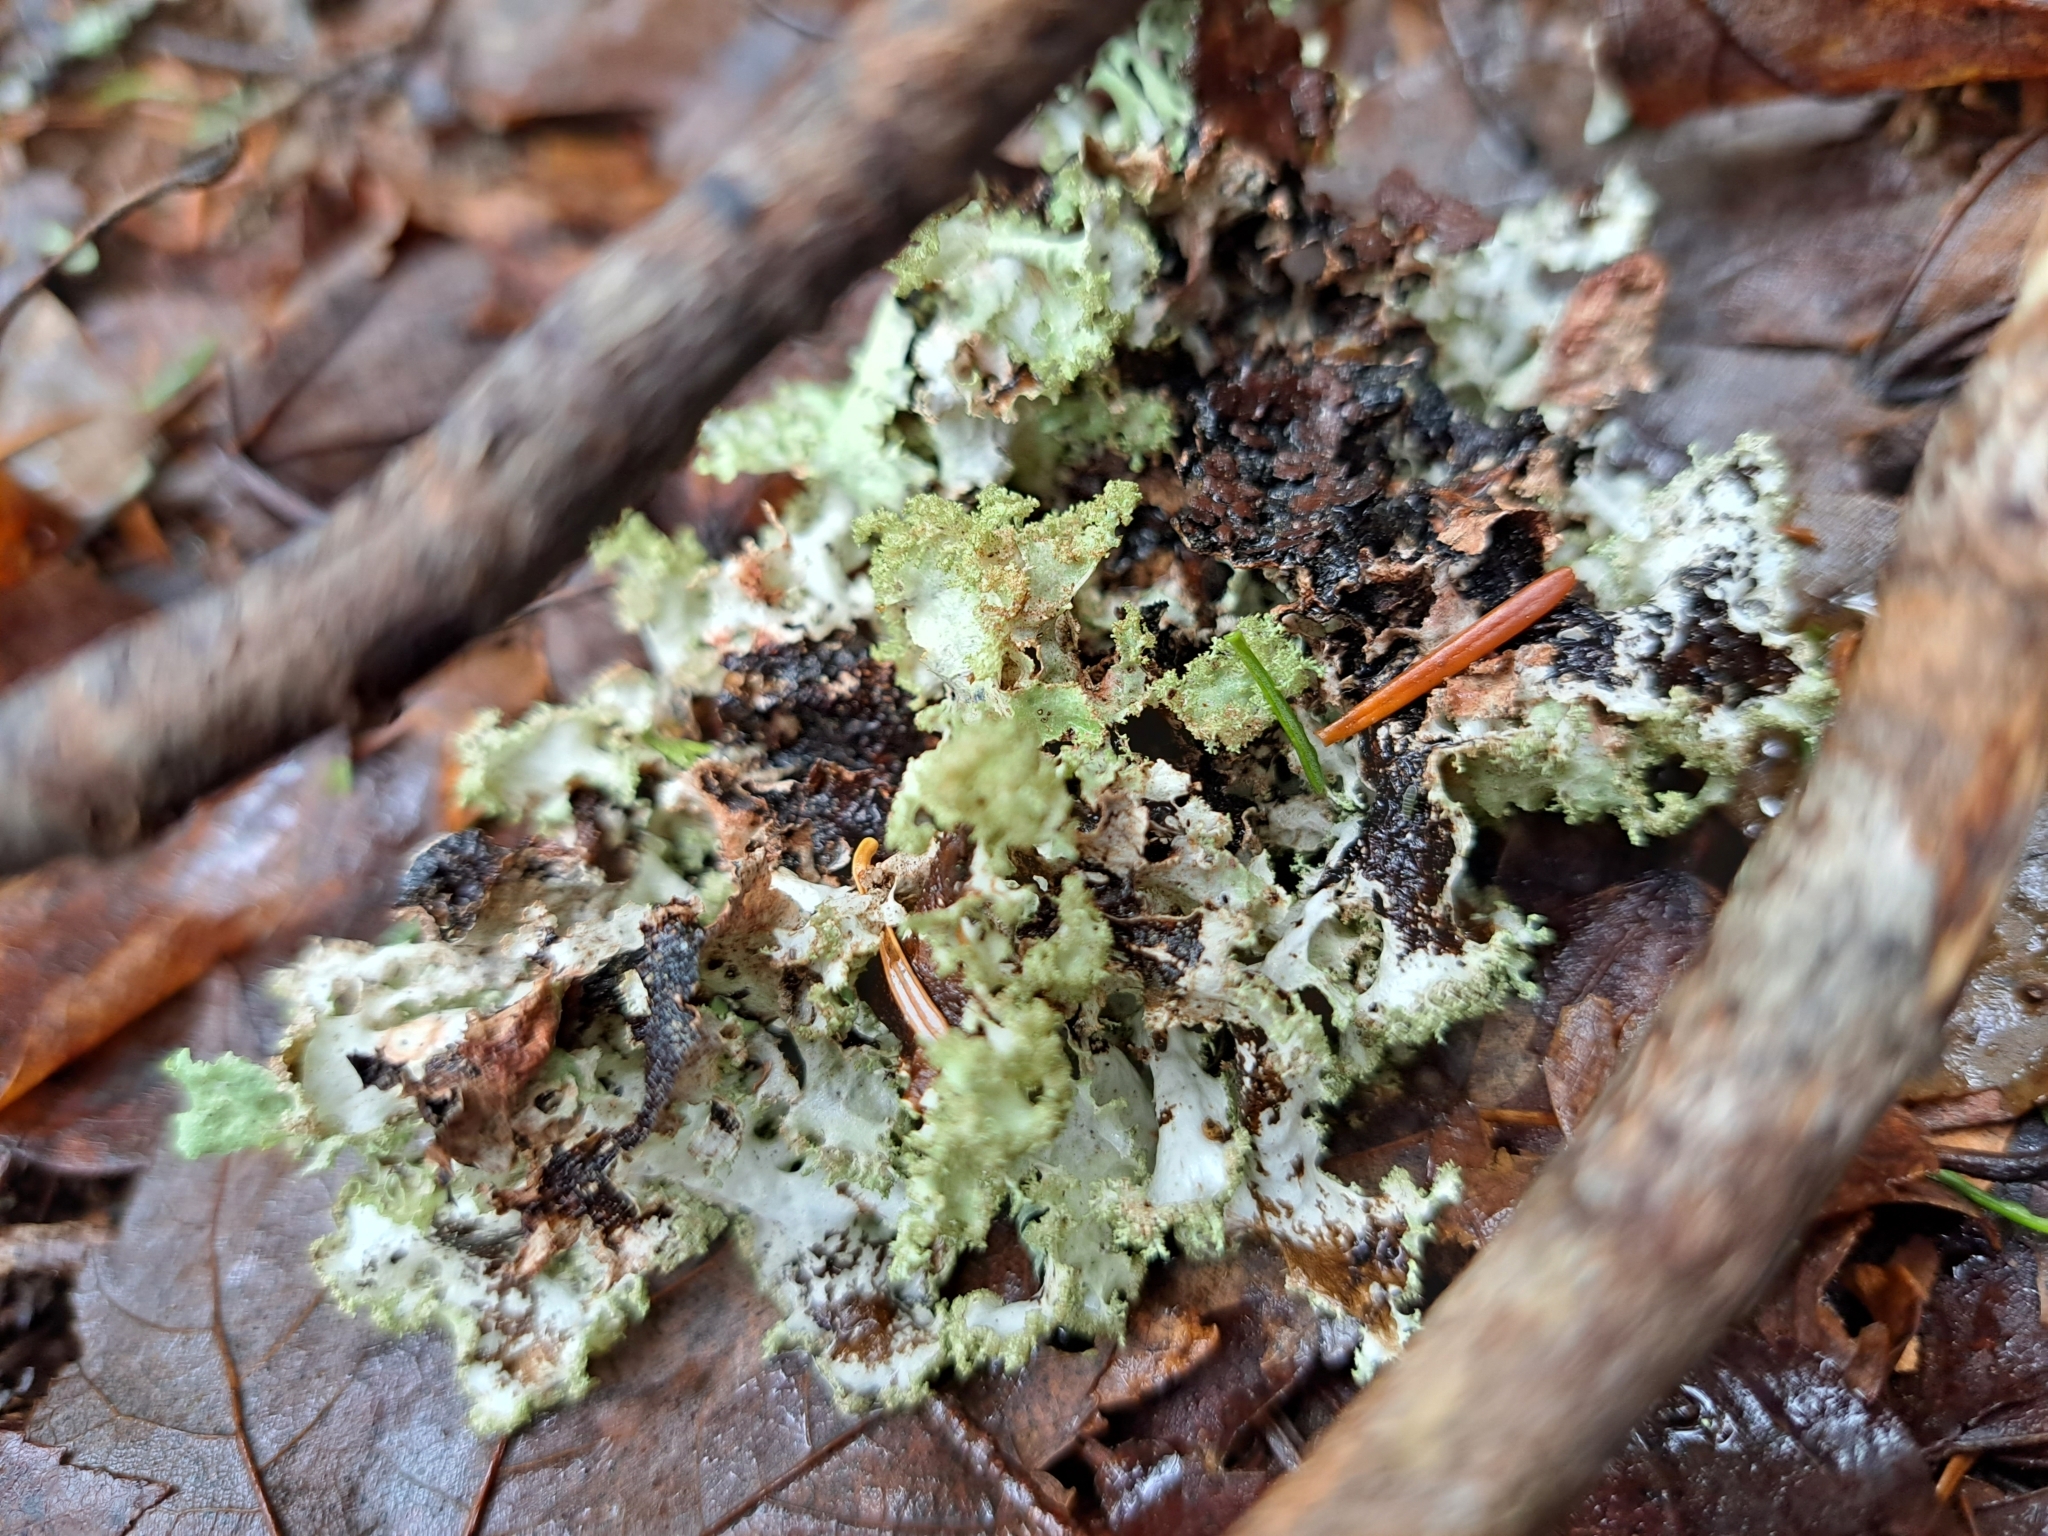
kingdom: Fungi
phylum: Ascomycota
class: Lecanoromycetes
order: Lecanorales
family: Parmeliaceae
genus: Platismatia
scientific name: Platismatia glauca
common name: Varied rag lichen
